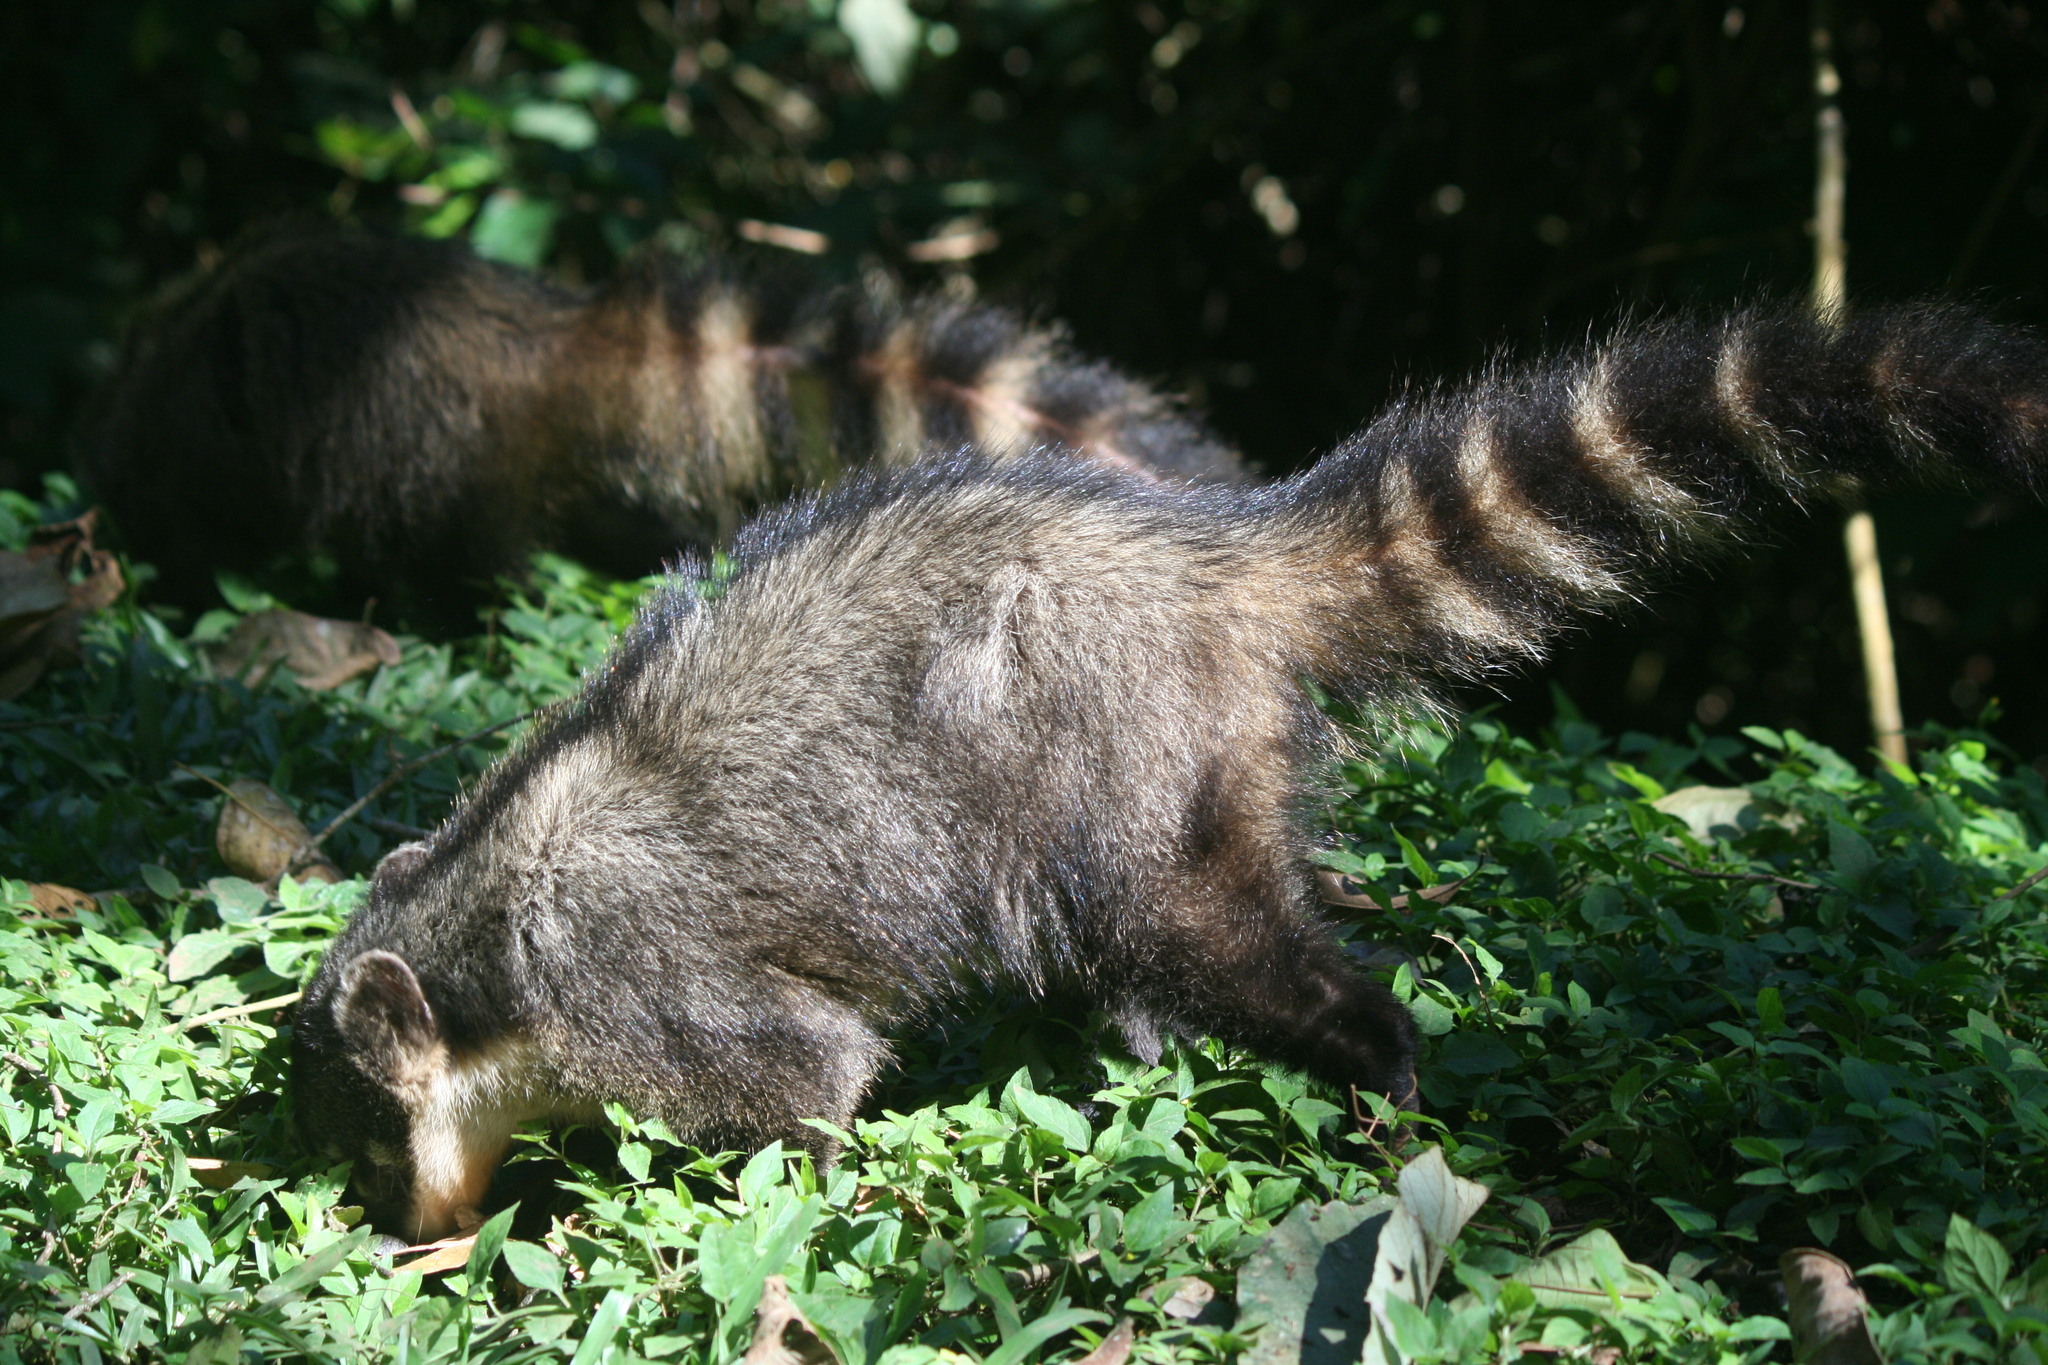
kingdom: Animalia
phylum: Chordata
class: Mammalia
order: Carnivora
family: Procyonidae
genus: Nasua
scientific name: Nasua nasua
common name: South american coati
